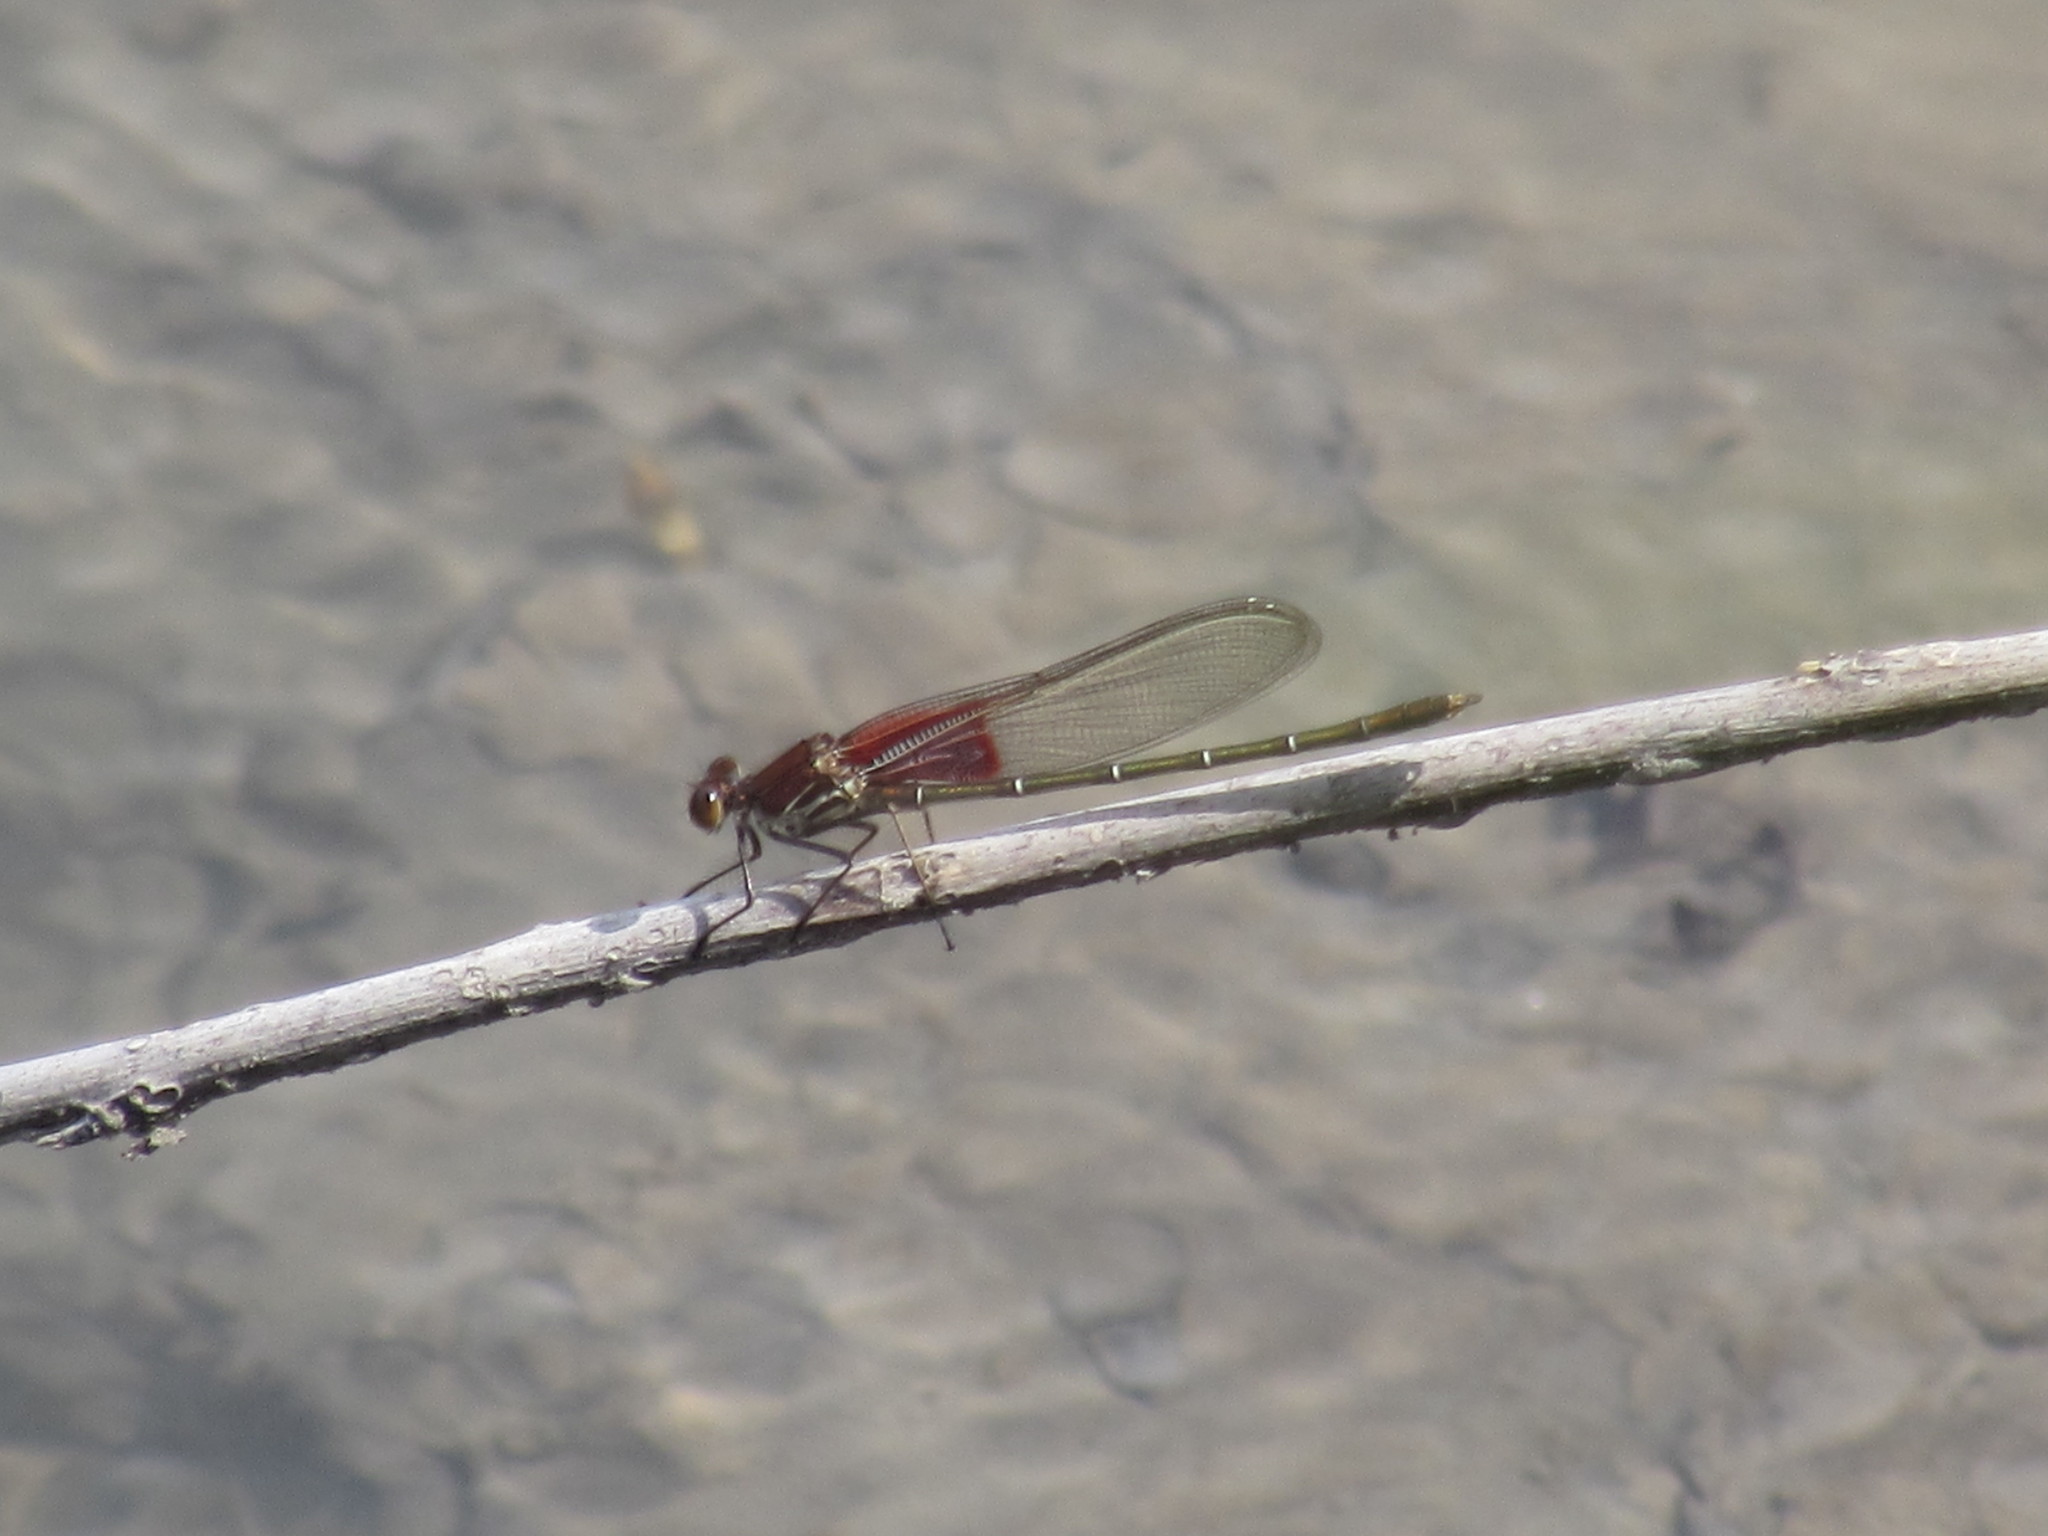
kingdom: Animalia
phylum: Arthropoda
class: Insecta
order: Odonata
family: Calopterygidae
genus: Hetaerina
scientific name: Hetaerina americana
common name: American rubyspot
